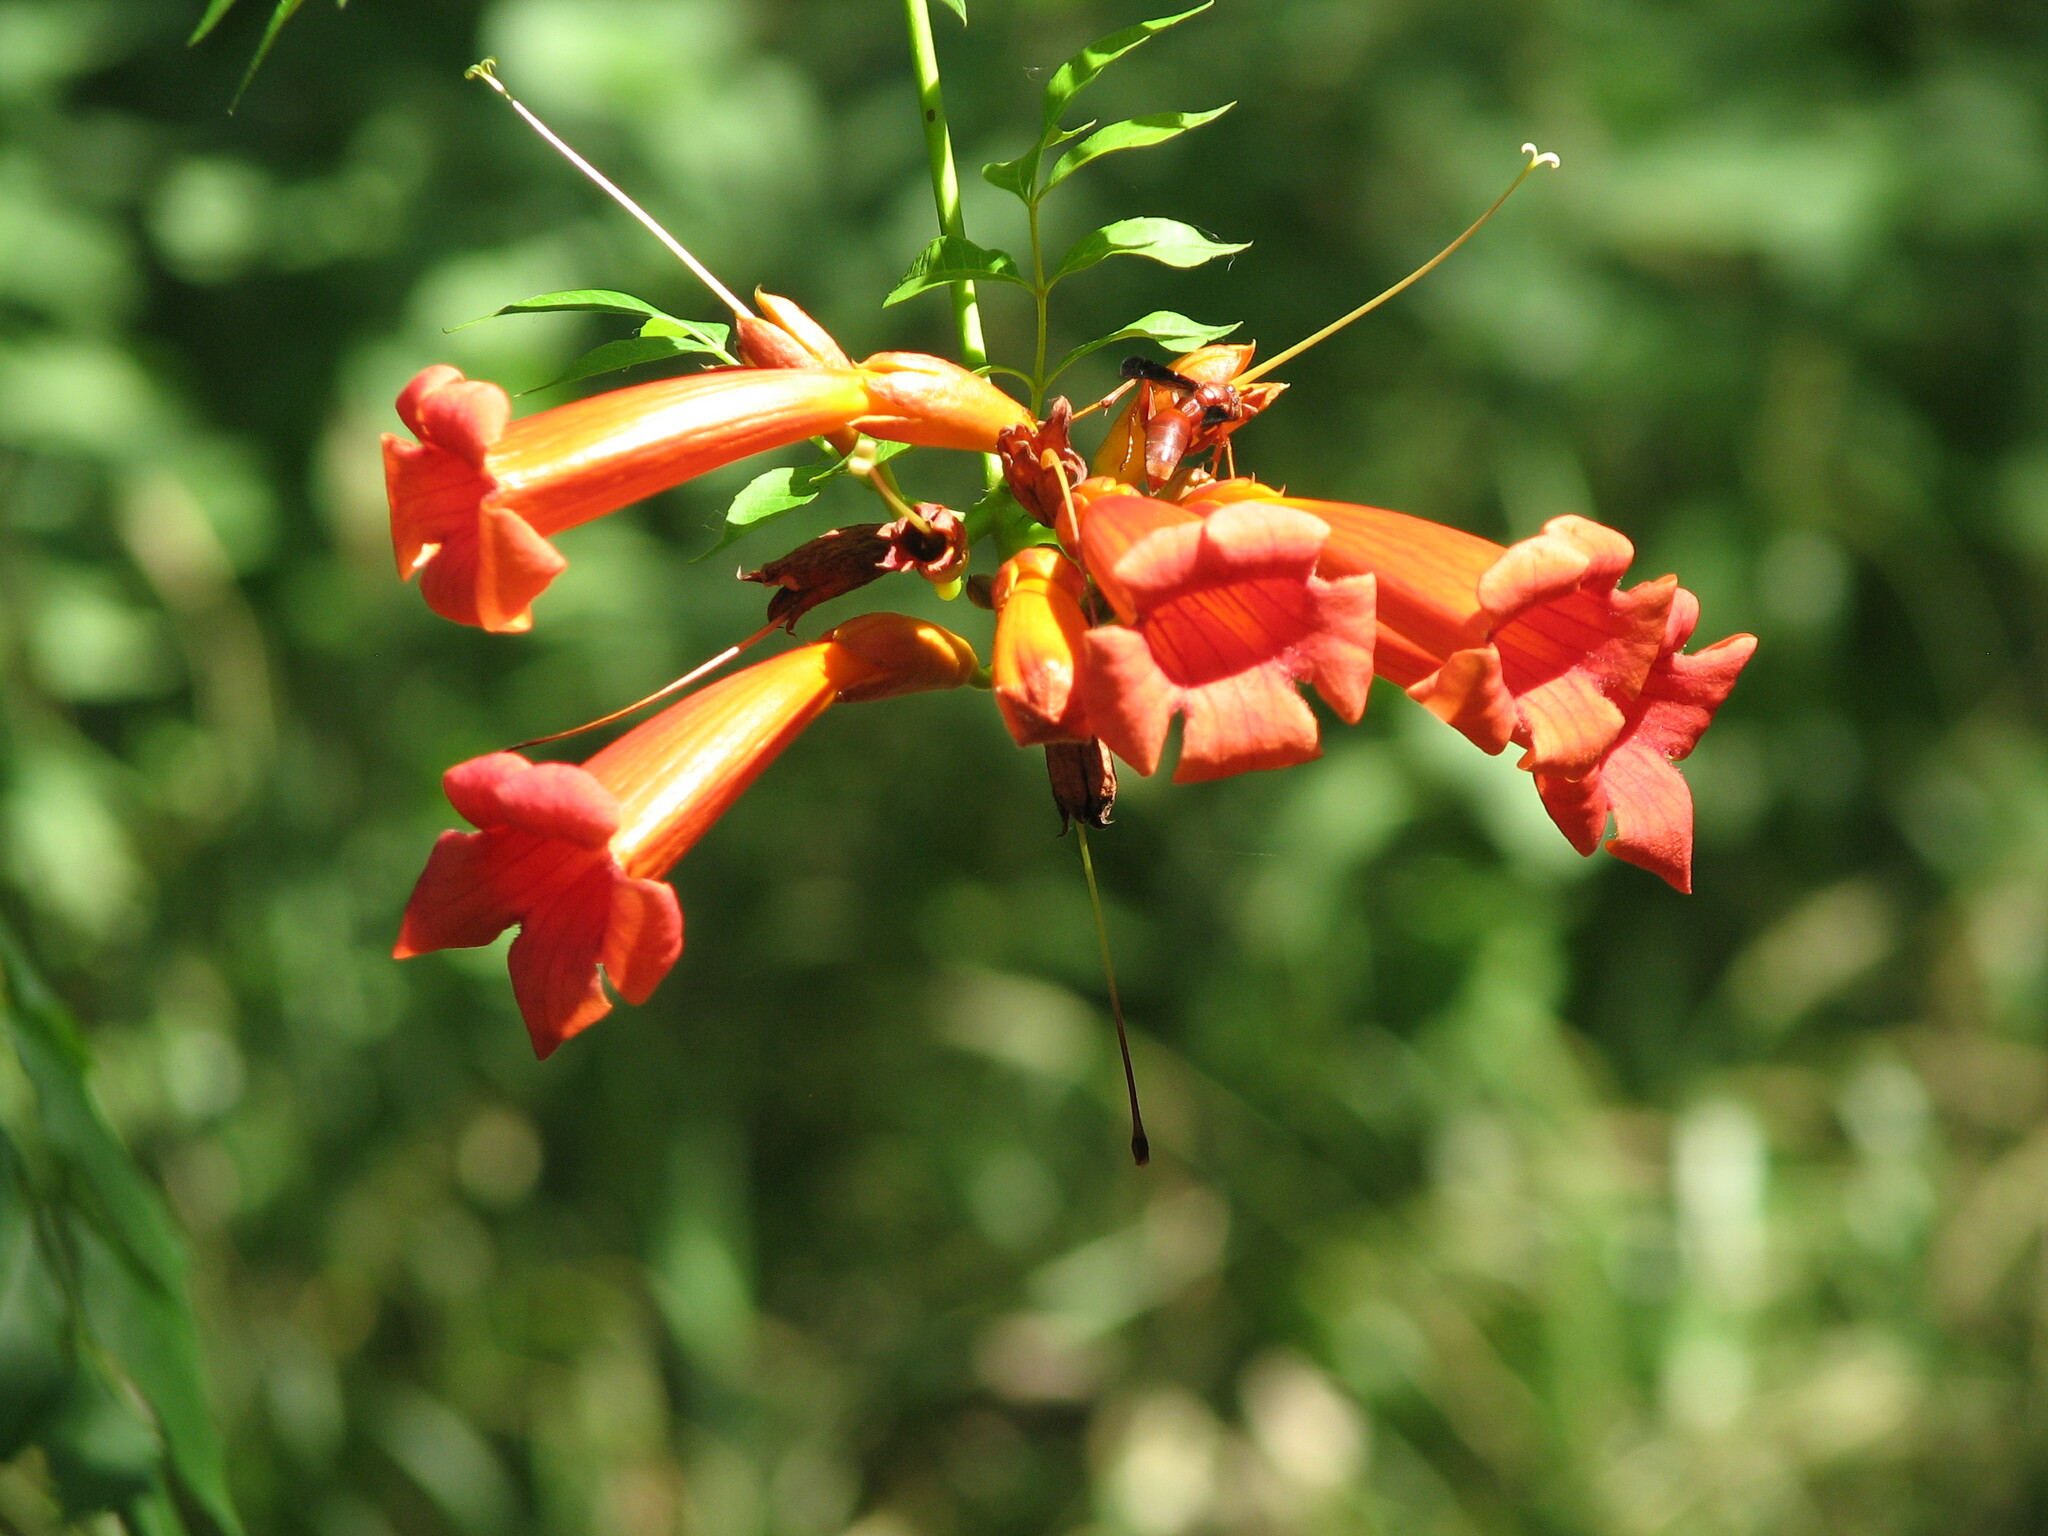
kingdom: Plantae
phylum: Tracheophyta
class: Magnoliopsida
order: Lamiales
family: Bignoniaceae
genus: Campsis
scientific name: Campsis radicans
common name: Trumpet-creeper
